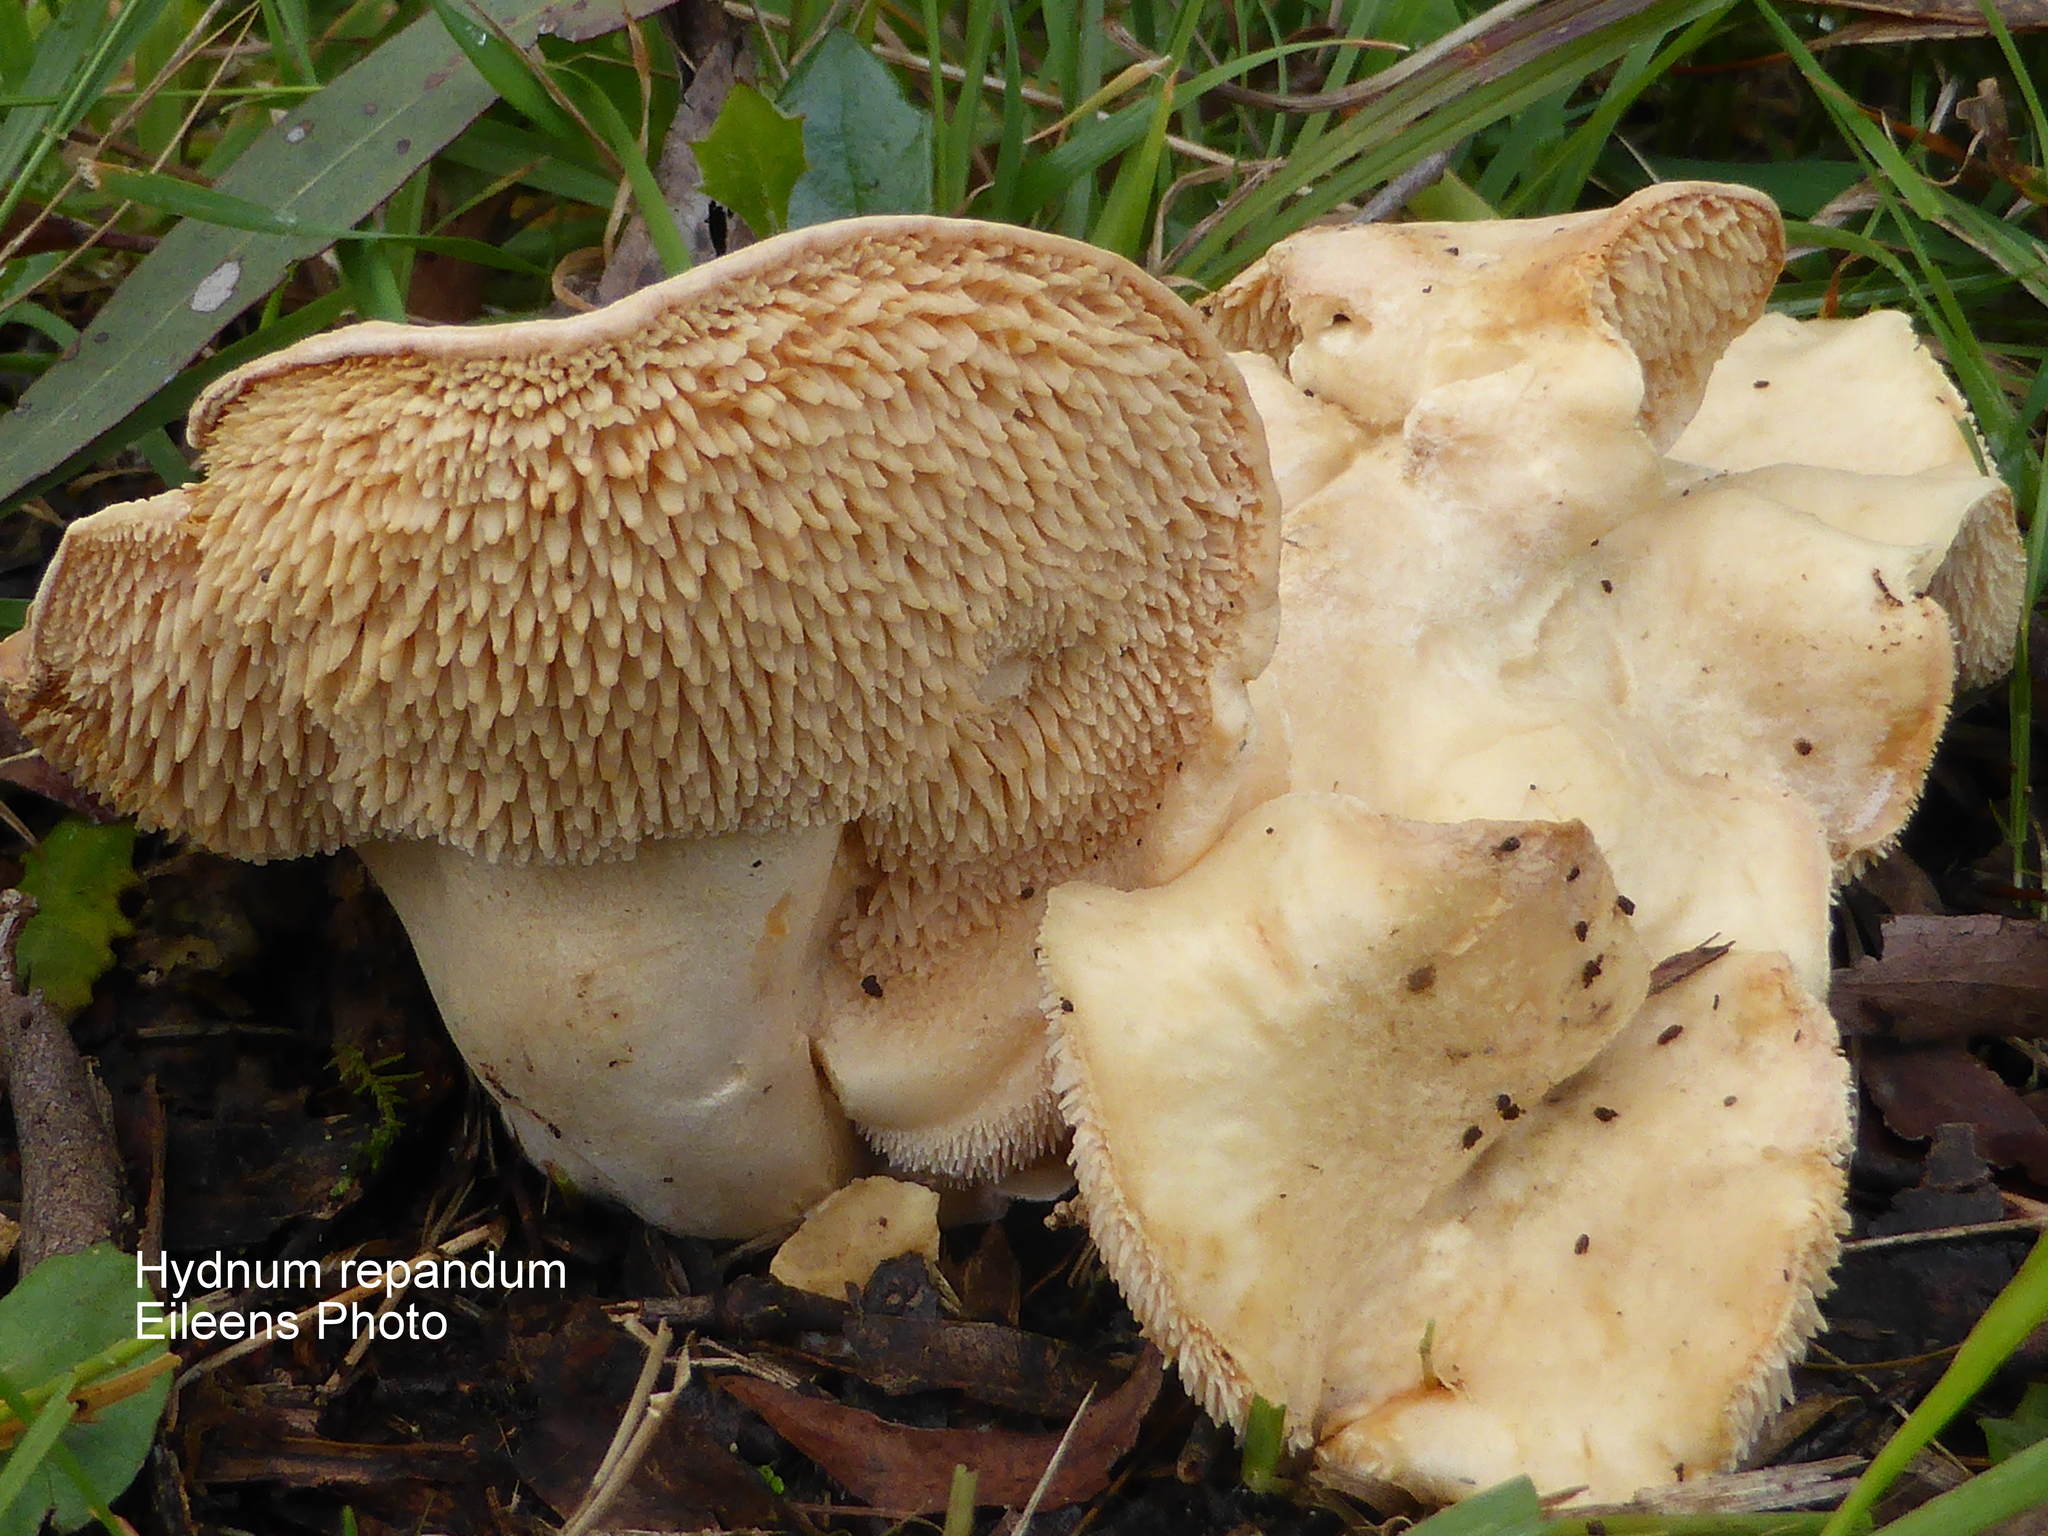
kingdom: Fungi
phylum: Basidiomycota
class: Agaricomycetes
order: Cantharellales
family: Hydnaceae
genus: Hydnum
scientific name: Hydnum repandum
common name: Wood hedgehog
